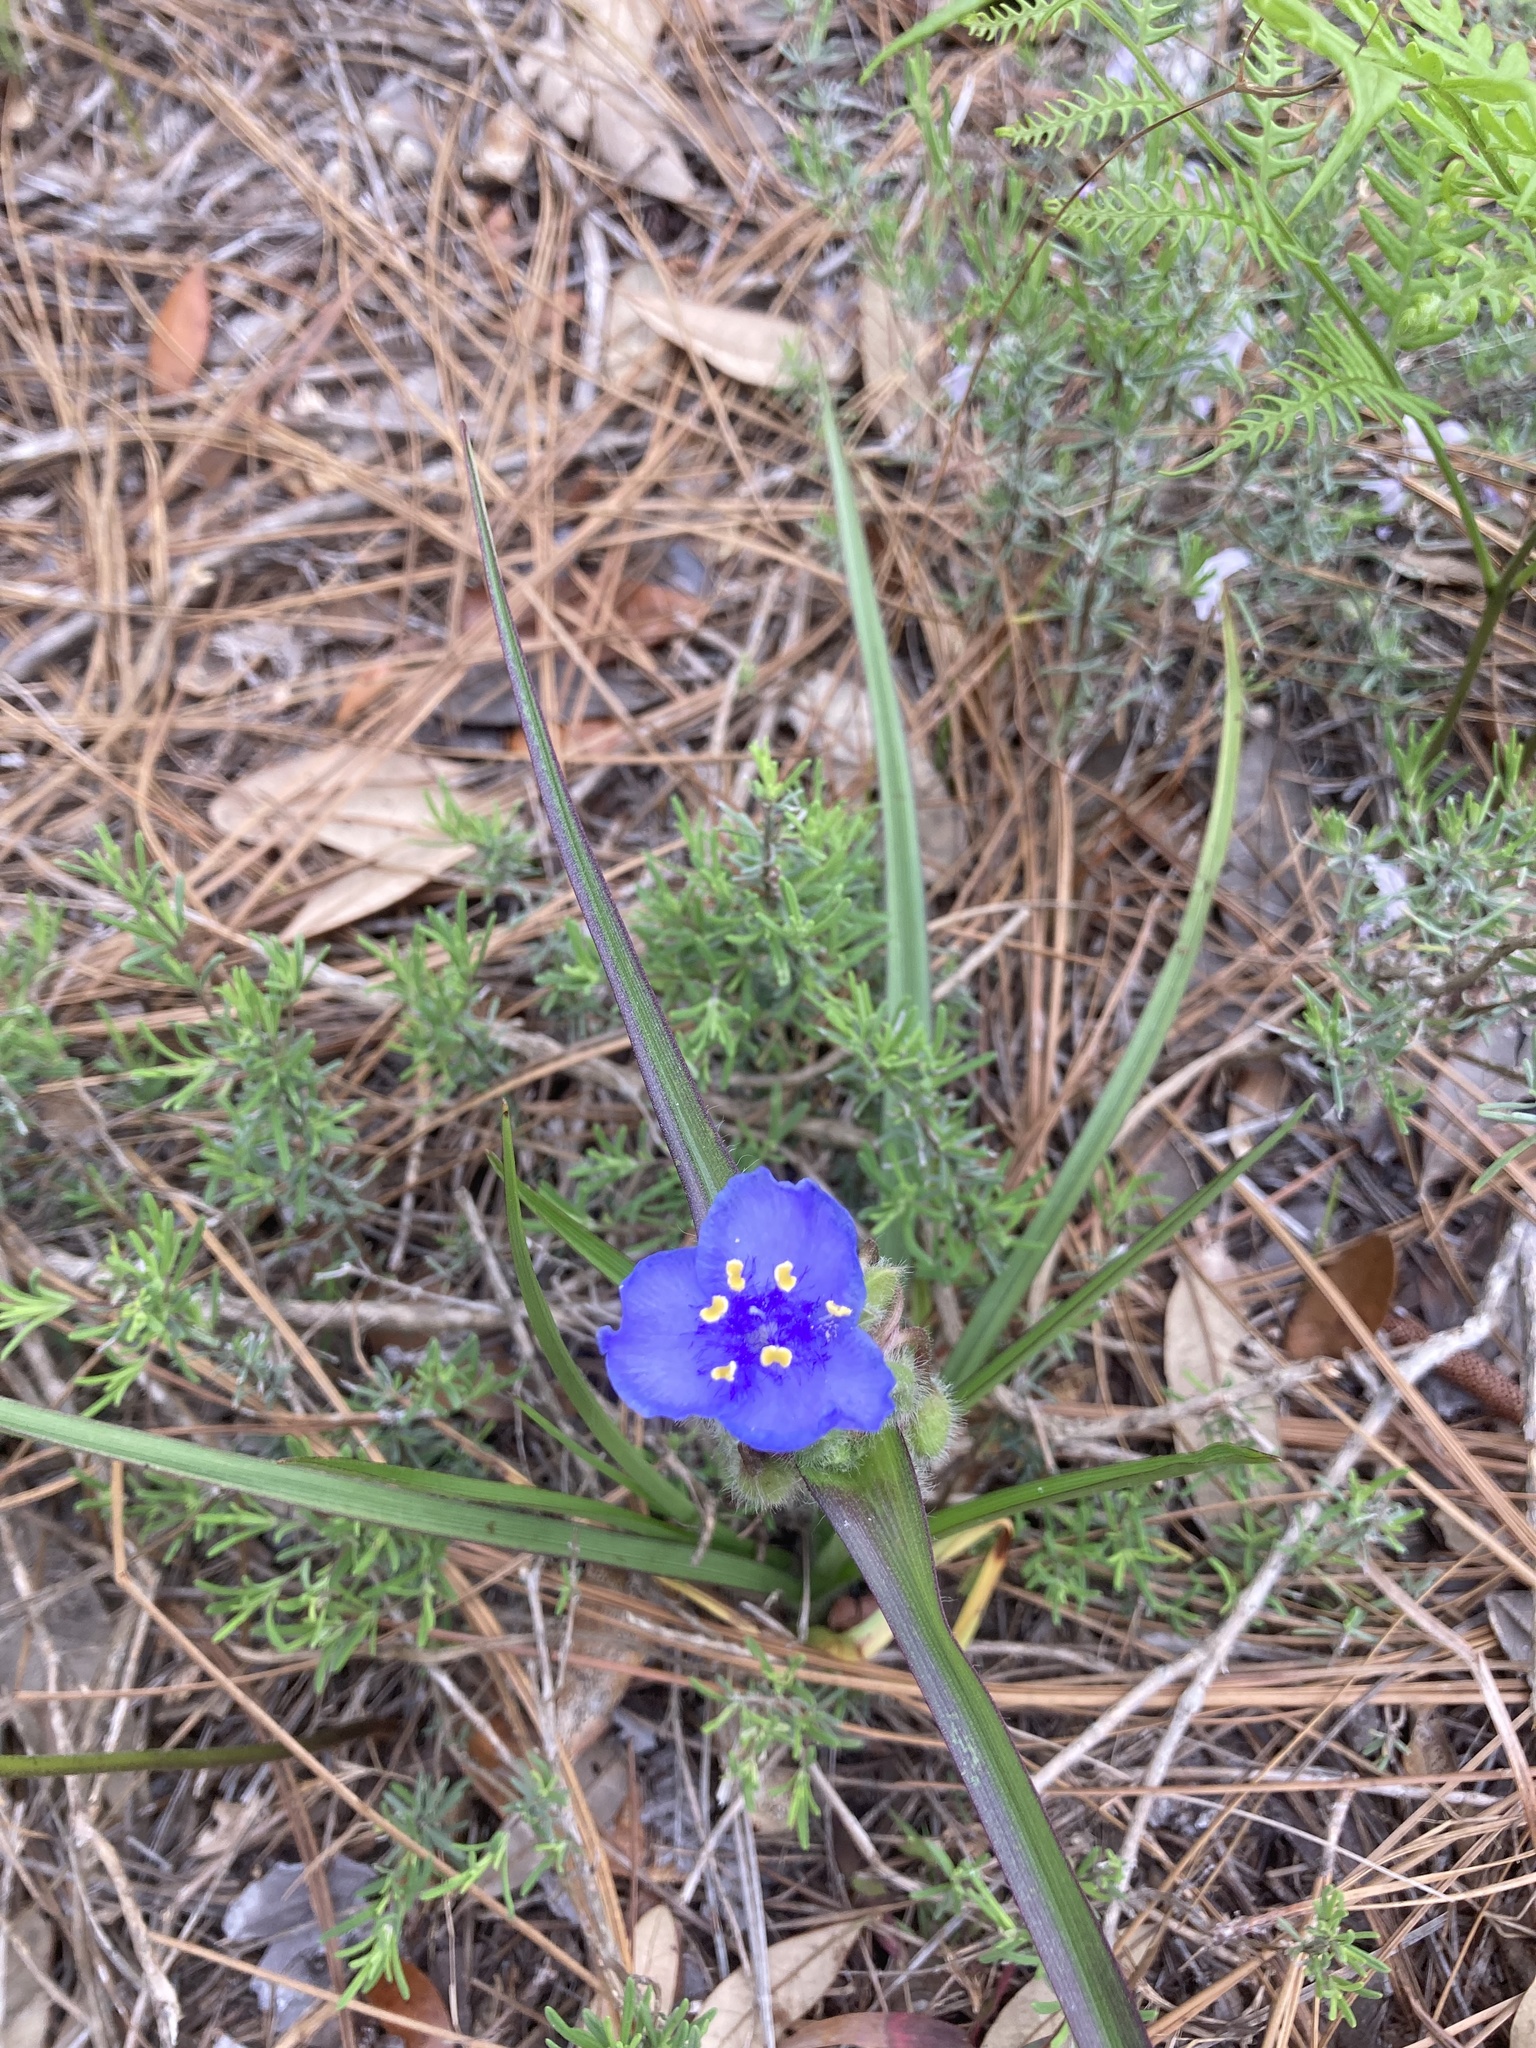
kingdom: Plantae
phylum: Tracheophyta
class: Liliopsida
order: Commelinales
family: Commelinaceae
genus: Tradescantia
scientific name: Tradescantia hirsutiflora
